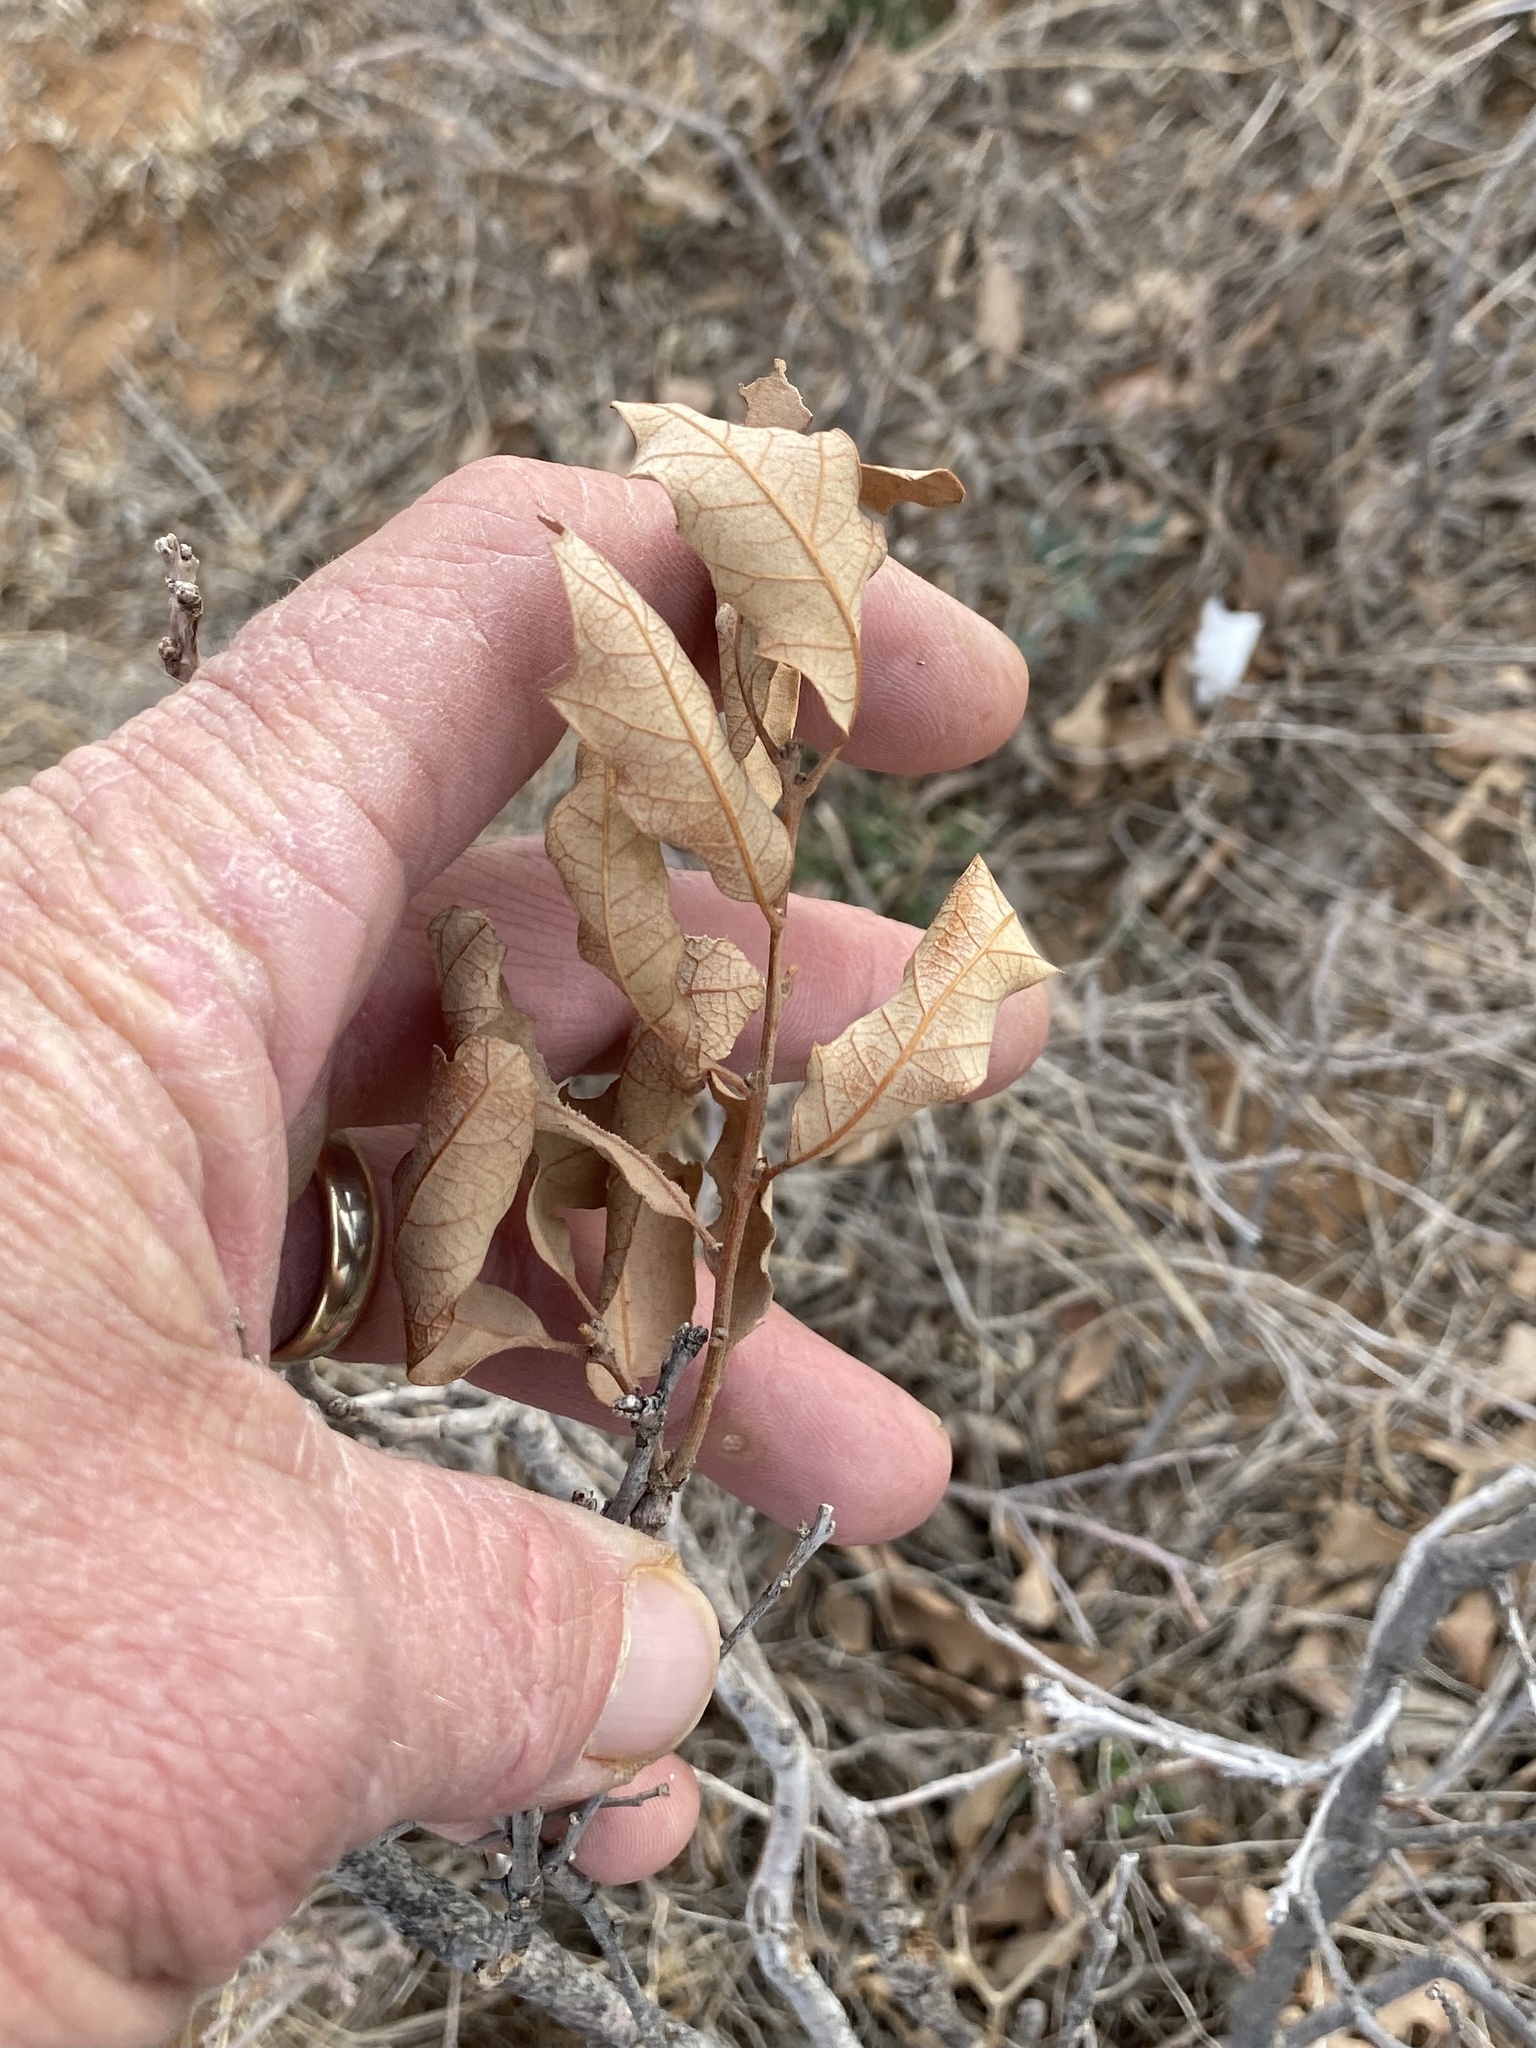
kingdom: Plantae
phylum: Tracheophyta
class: Magnoliopsida
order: Fagales
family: Fagaceae
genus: Quercus
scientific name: Quercus havardii
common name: Shinnery oak
